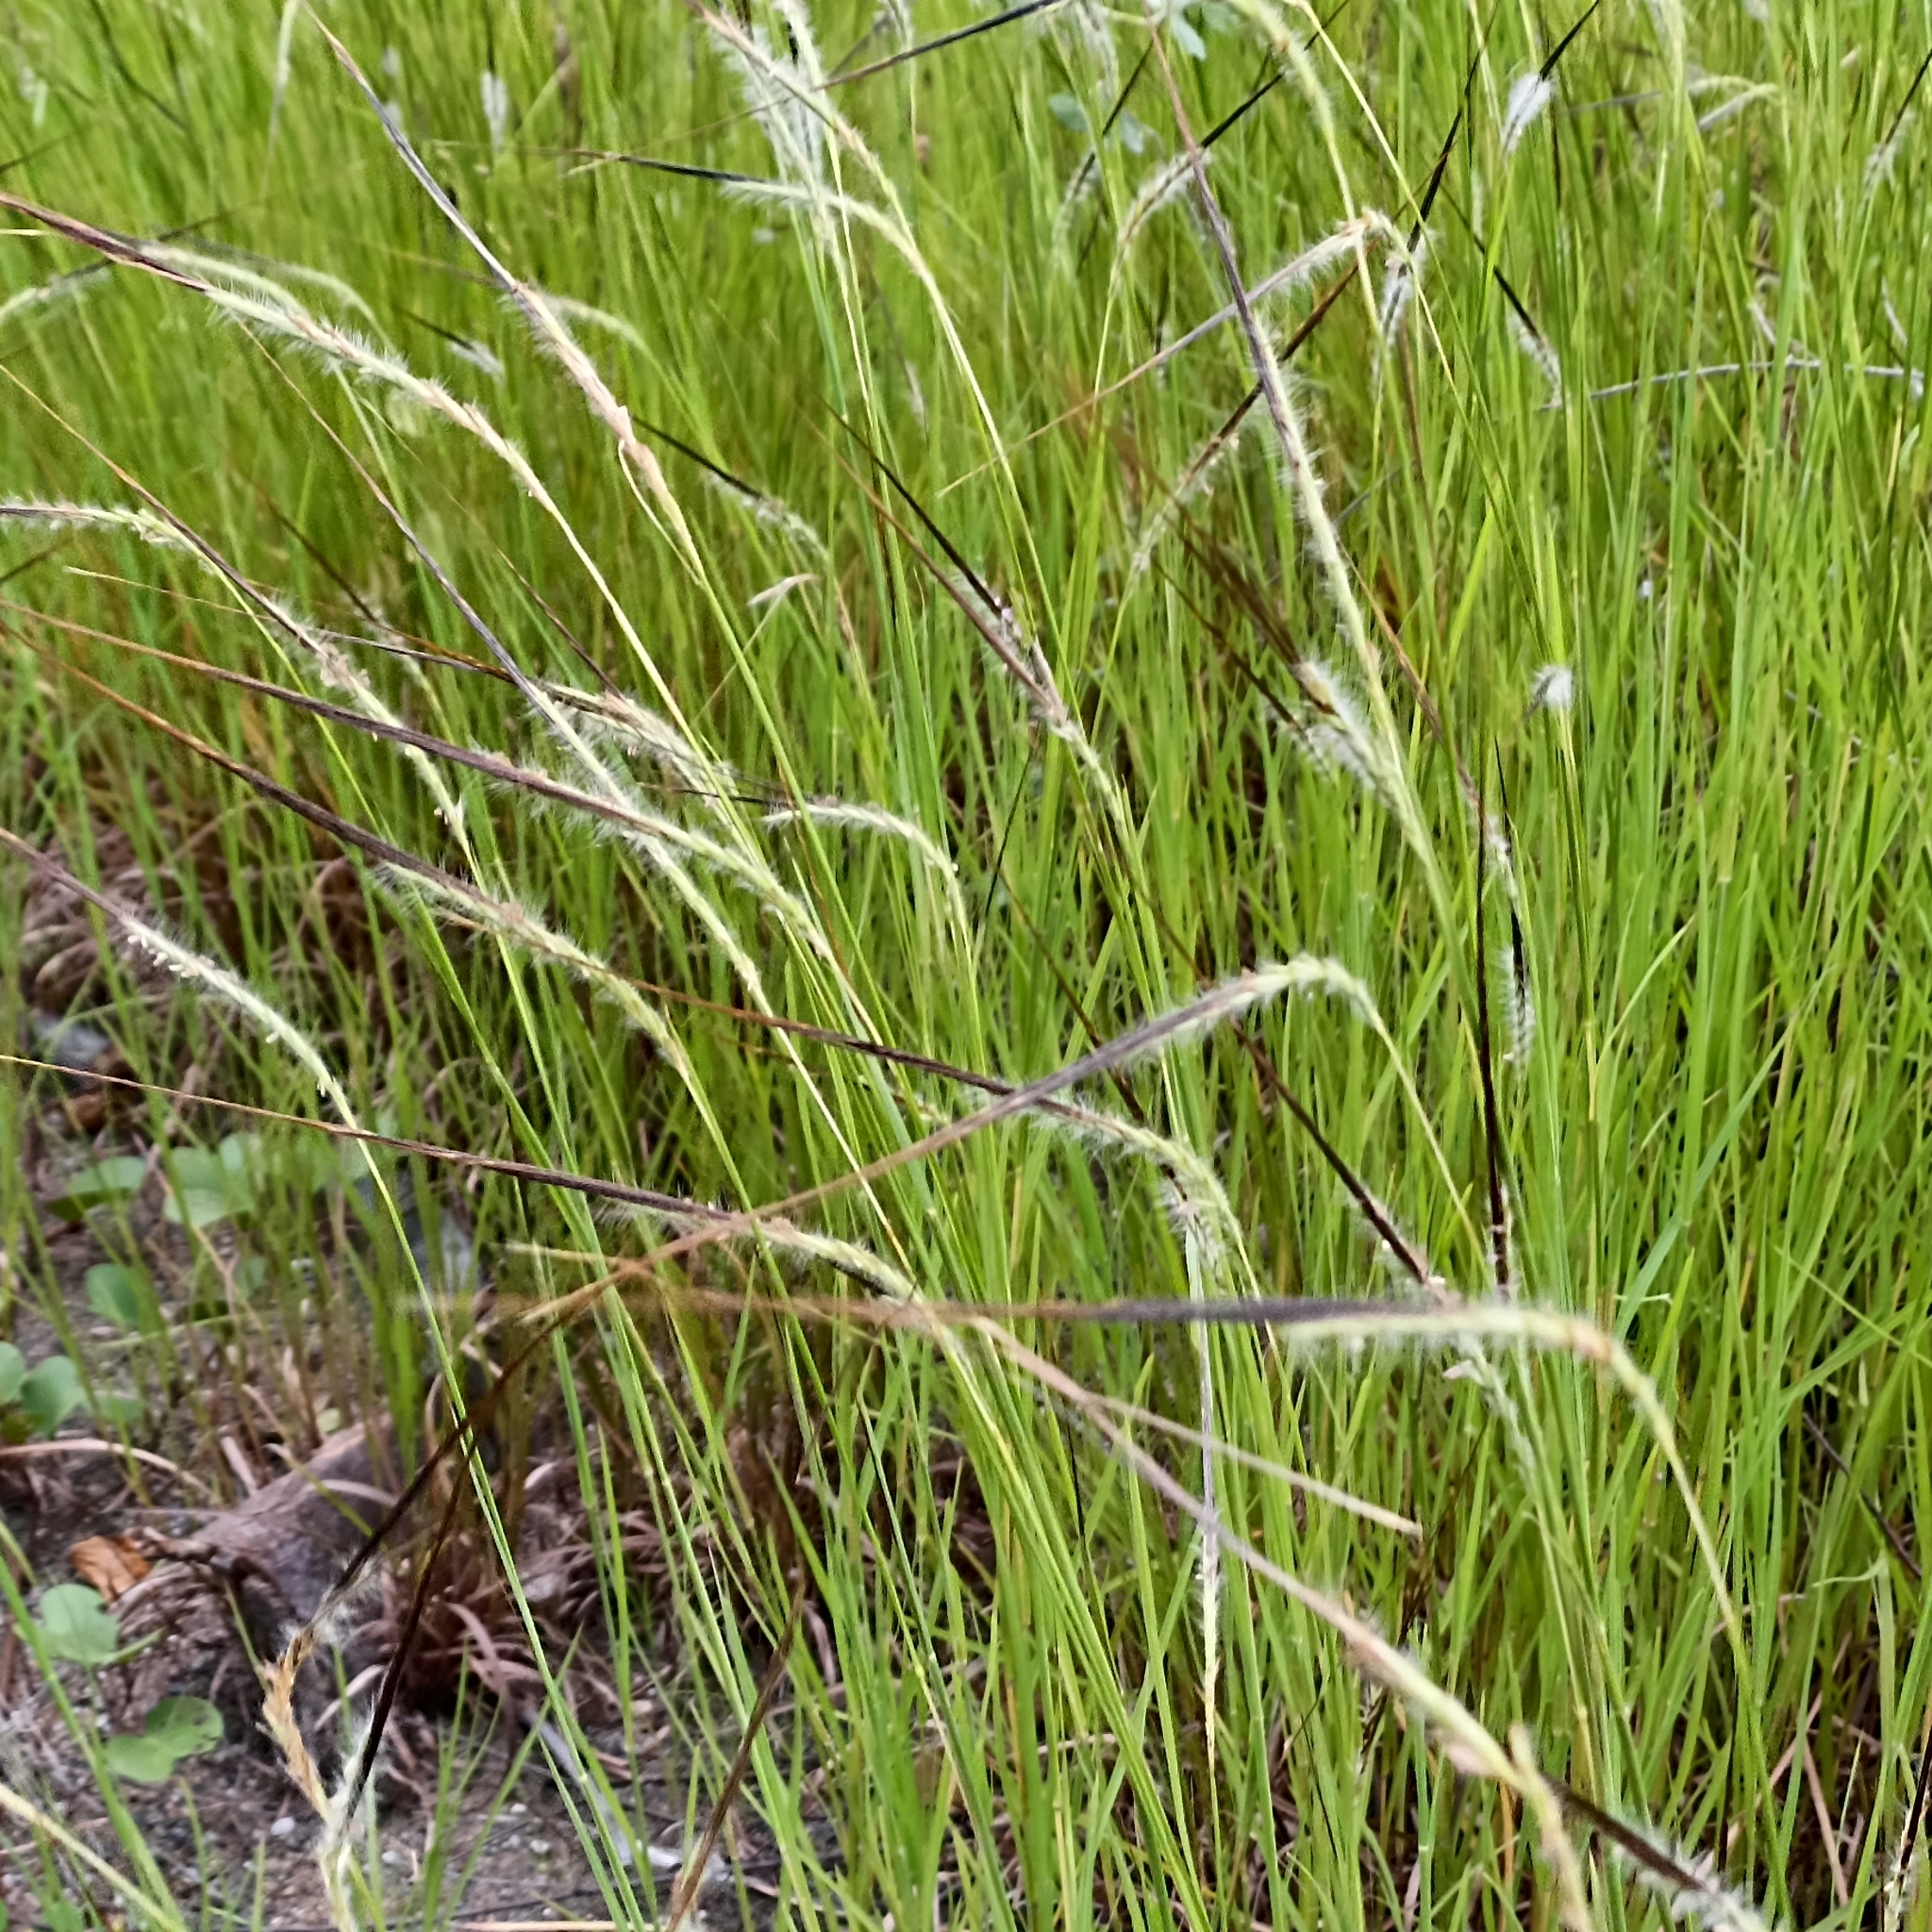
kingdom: Plantae
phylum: Tracheophyta
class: Liliopsida
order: Poales
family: Poaceae
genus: Heteropogon
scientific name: Heteropogon contortus
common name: Tanglehead
